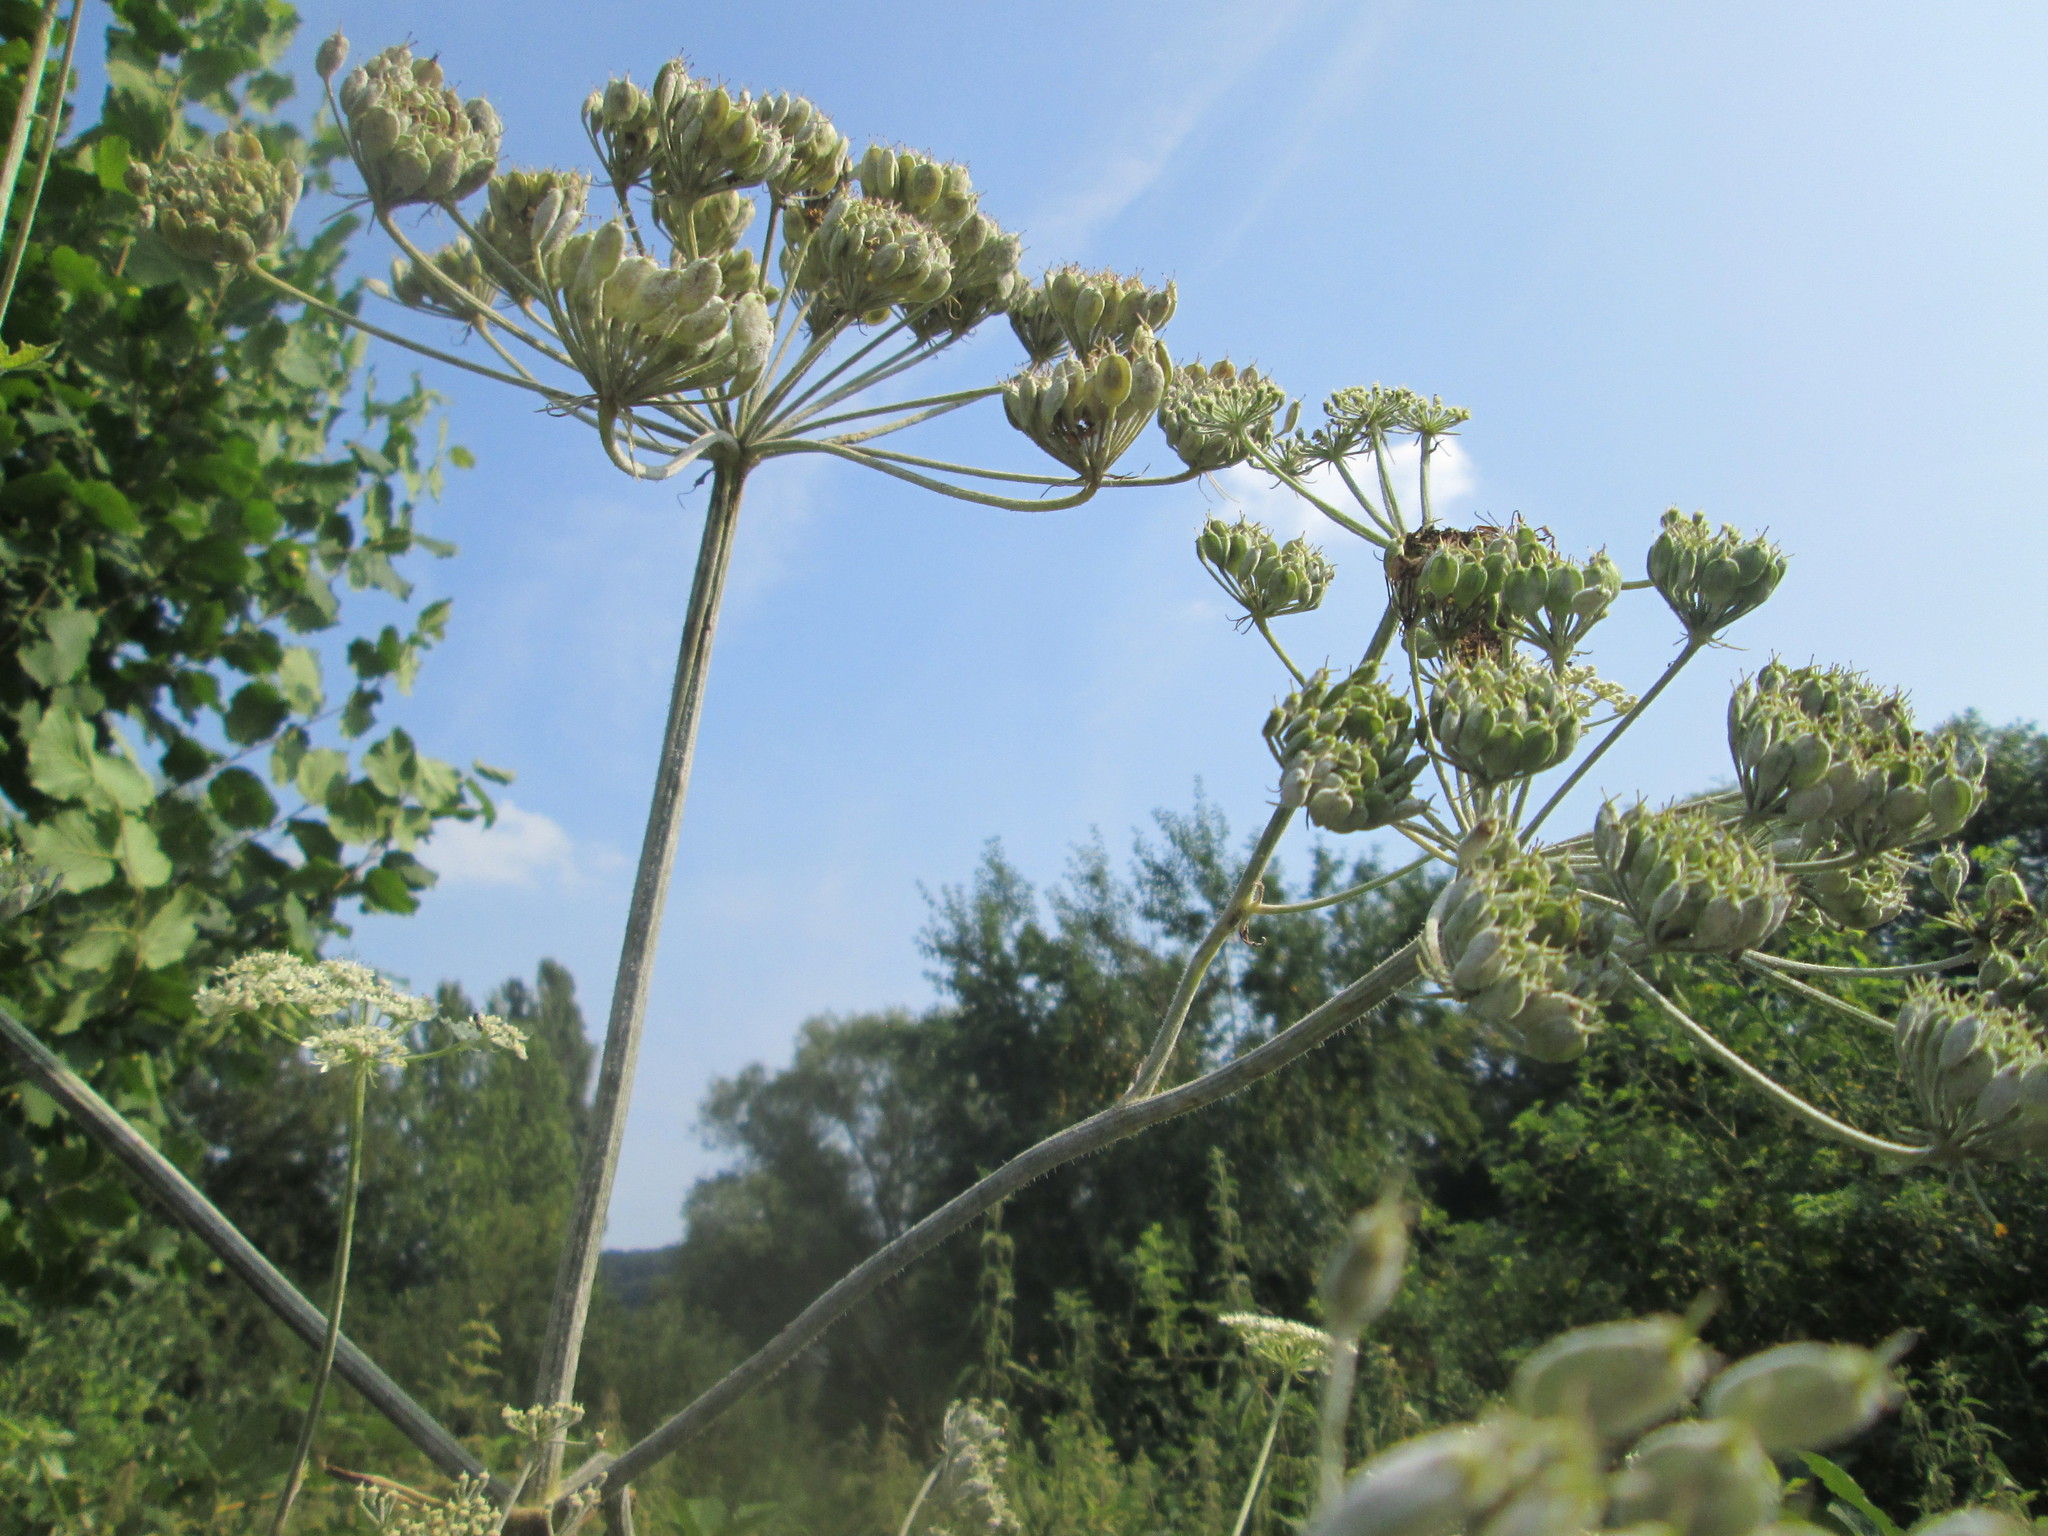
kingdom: Plantae
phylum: Tracheophyta
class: Magnoliopsida
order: Apiales
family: Apiaceae
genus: Heracleum
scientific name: Heracleum sphondylium
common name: Hogweed
